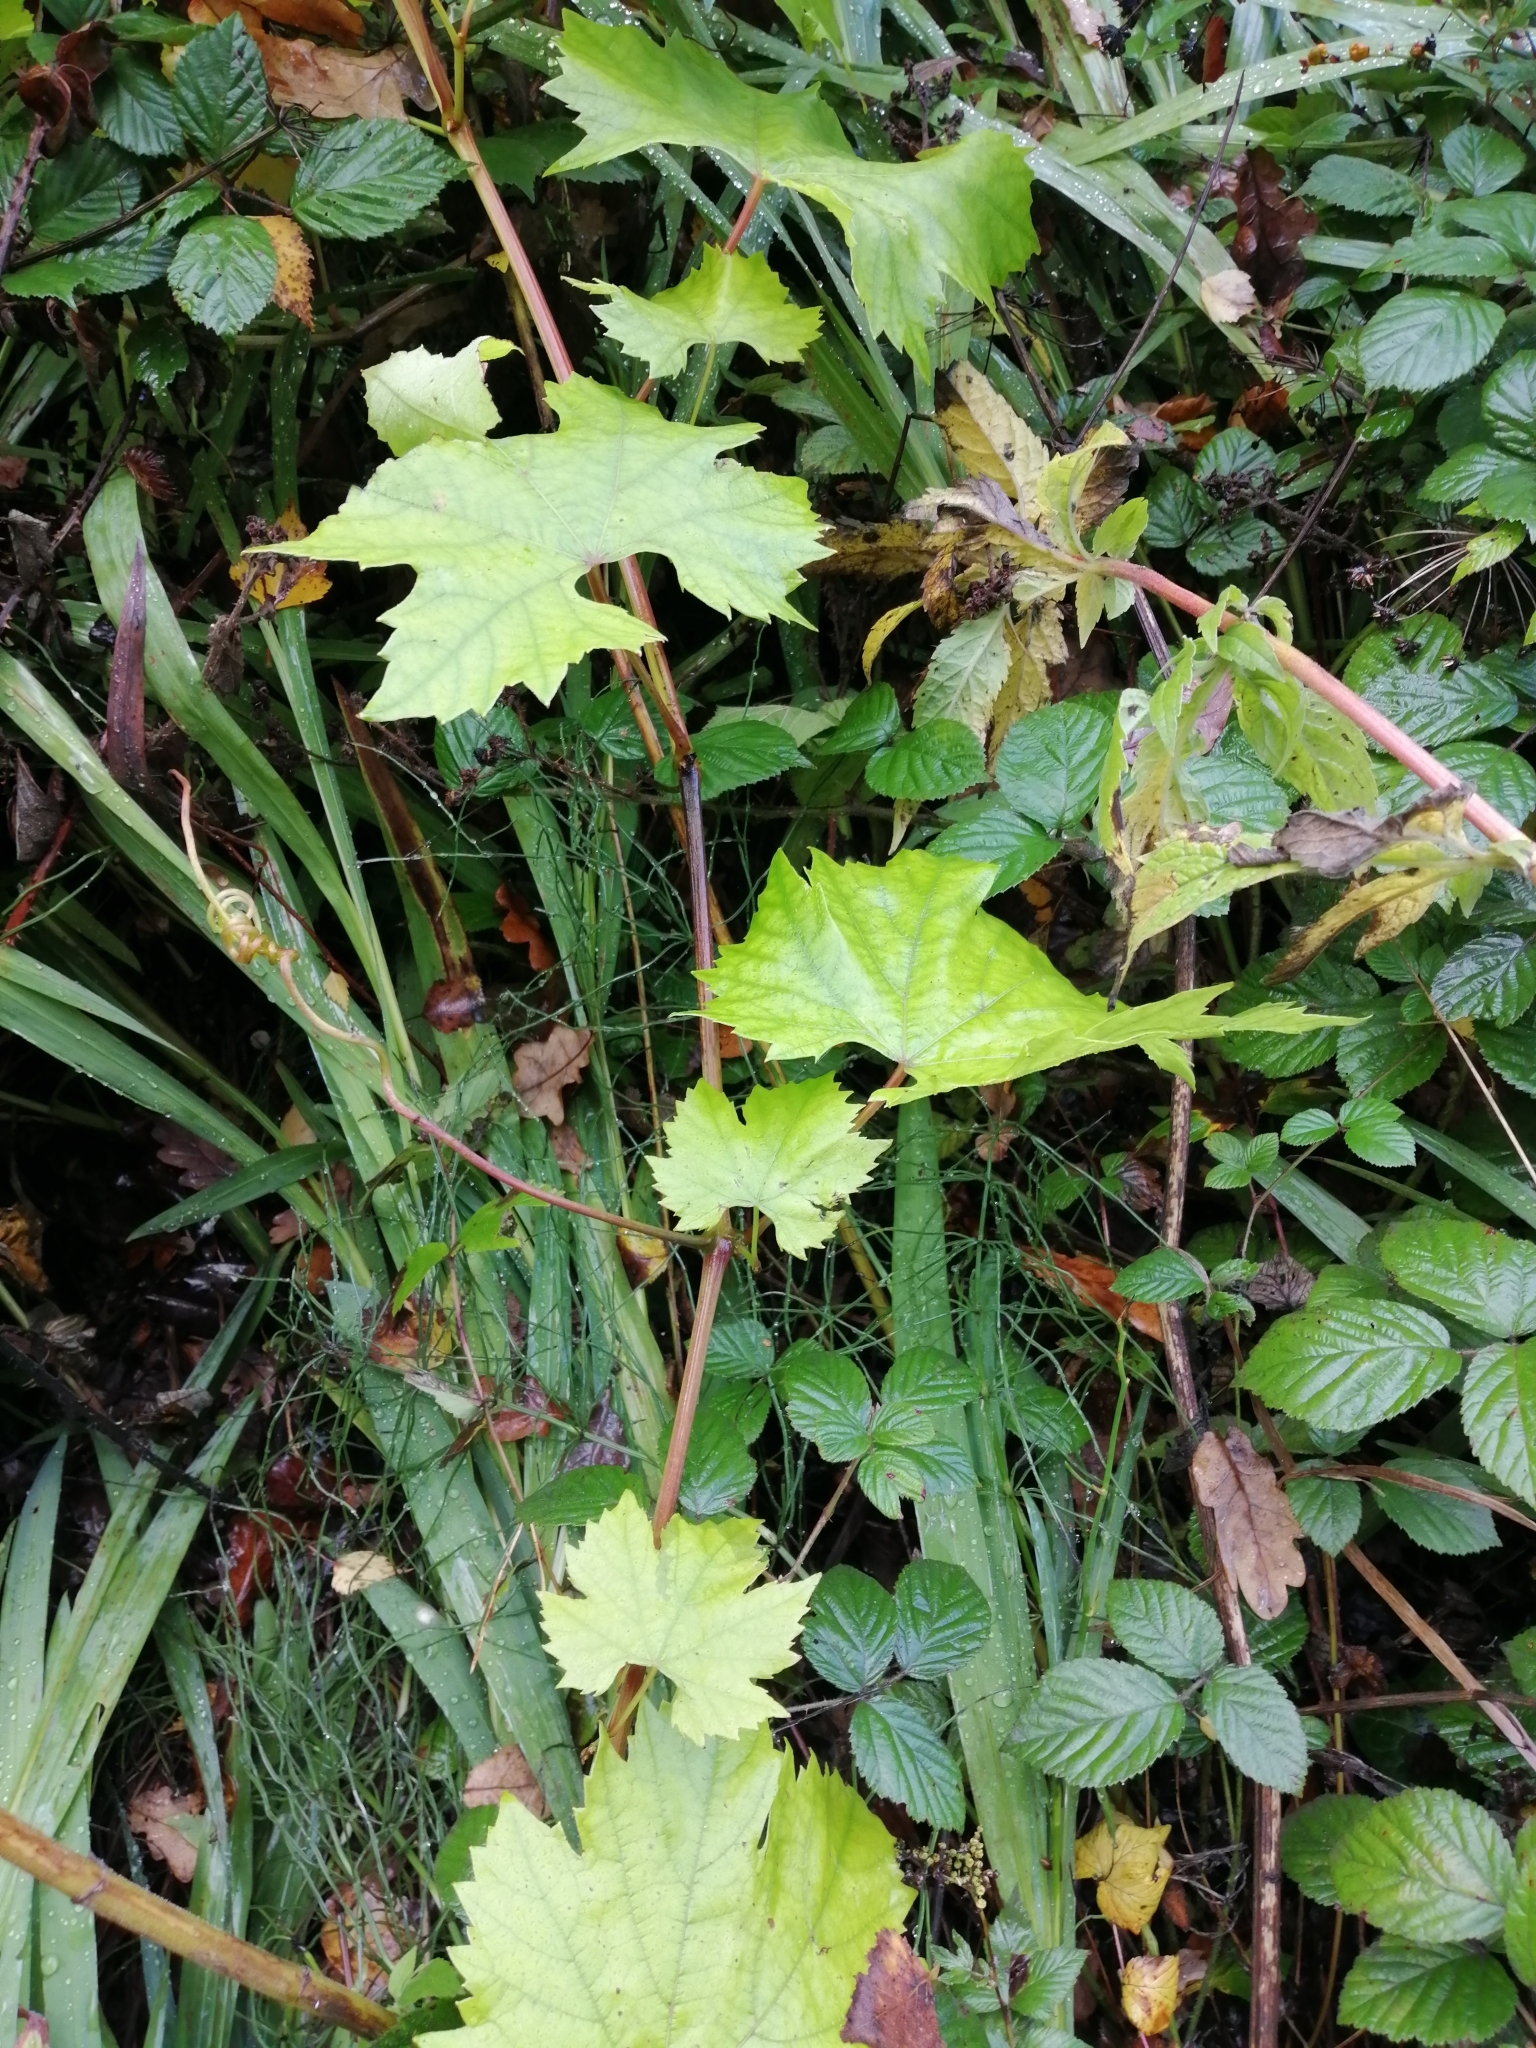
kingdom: Plantae
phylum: Tracheophyta
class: Magnoliopsida
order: Vitales
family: Vitaceae
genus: Vitis
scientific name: Vitis vinifera
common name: Grape-vine
